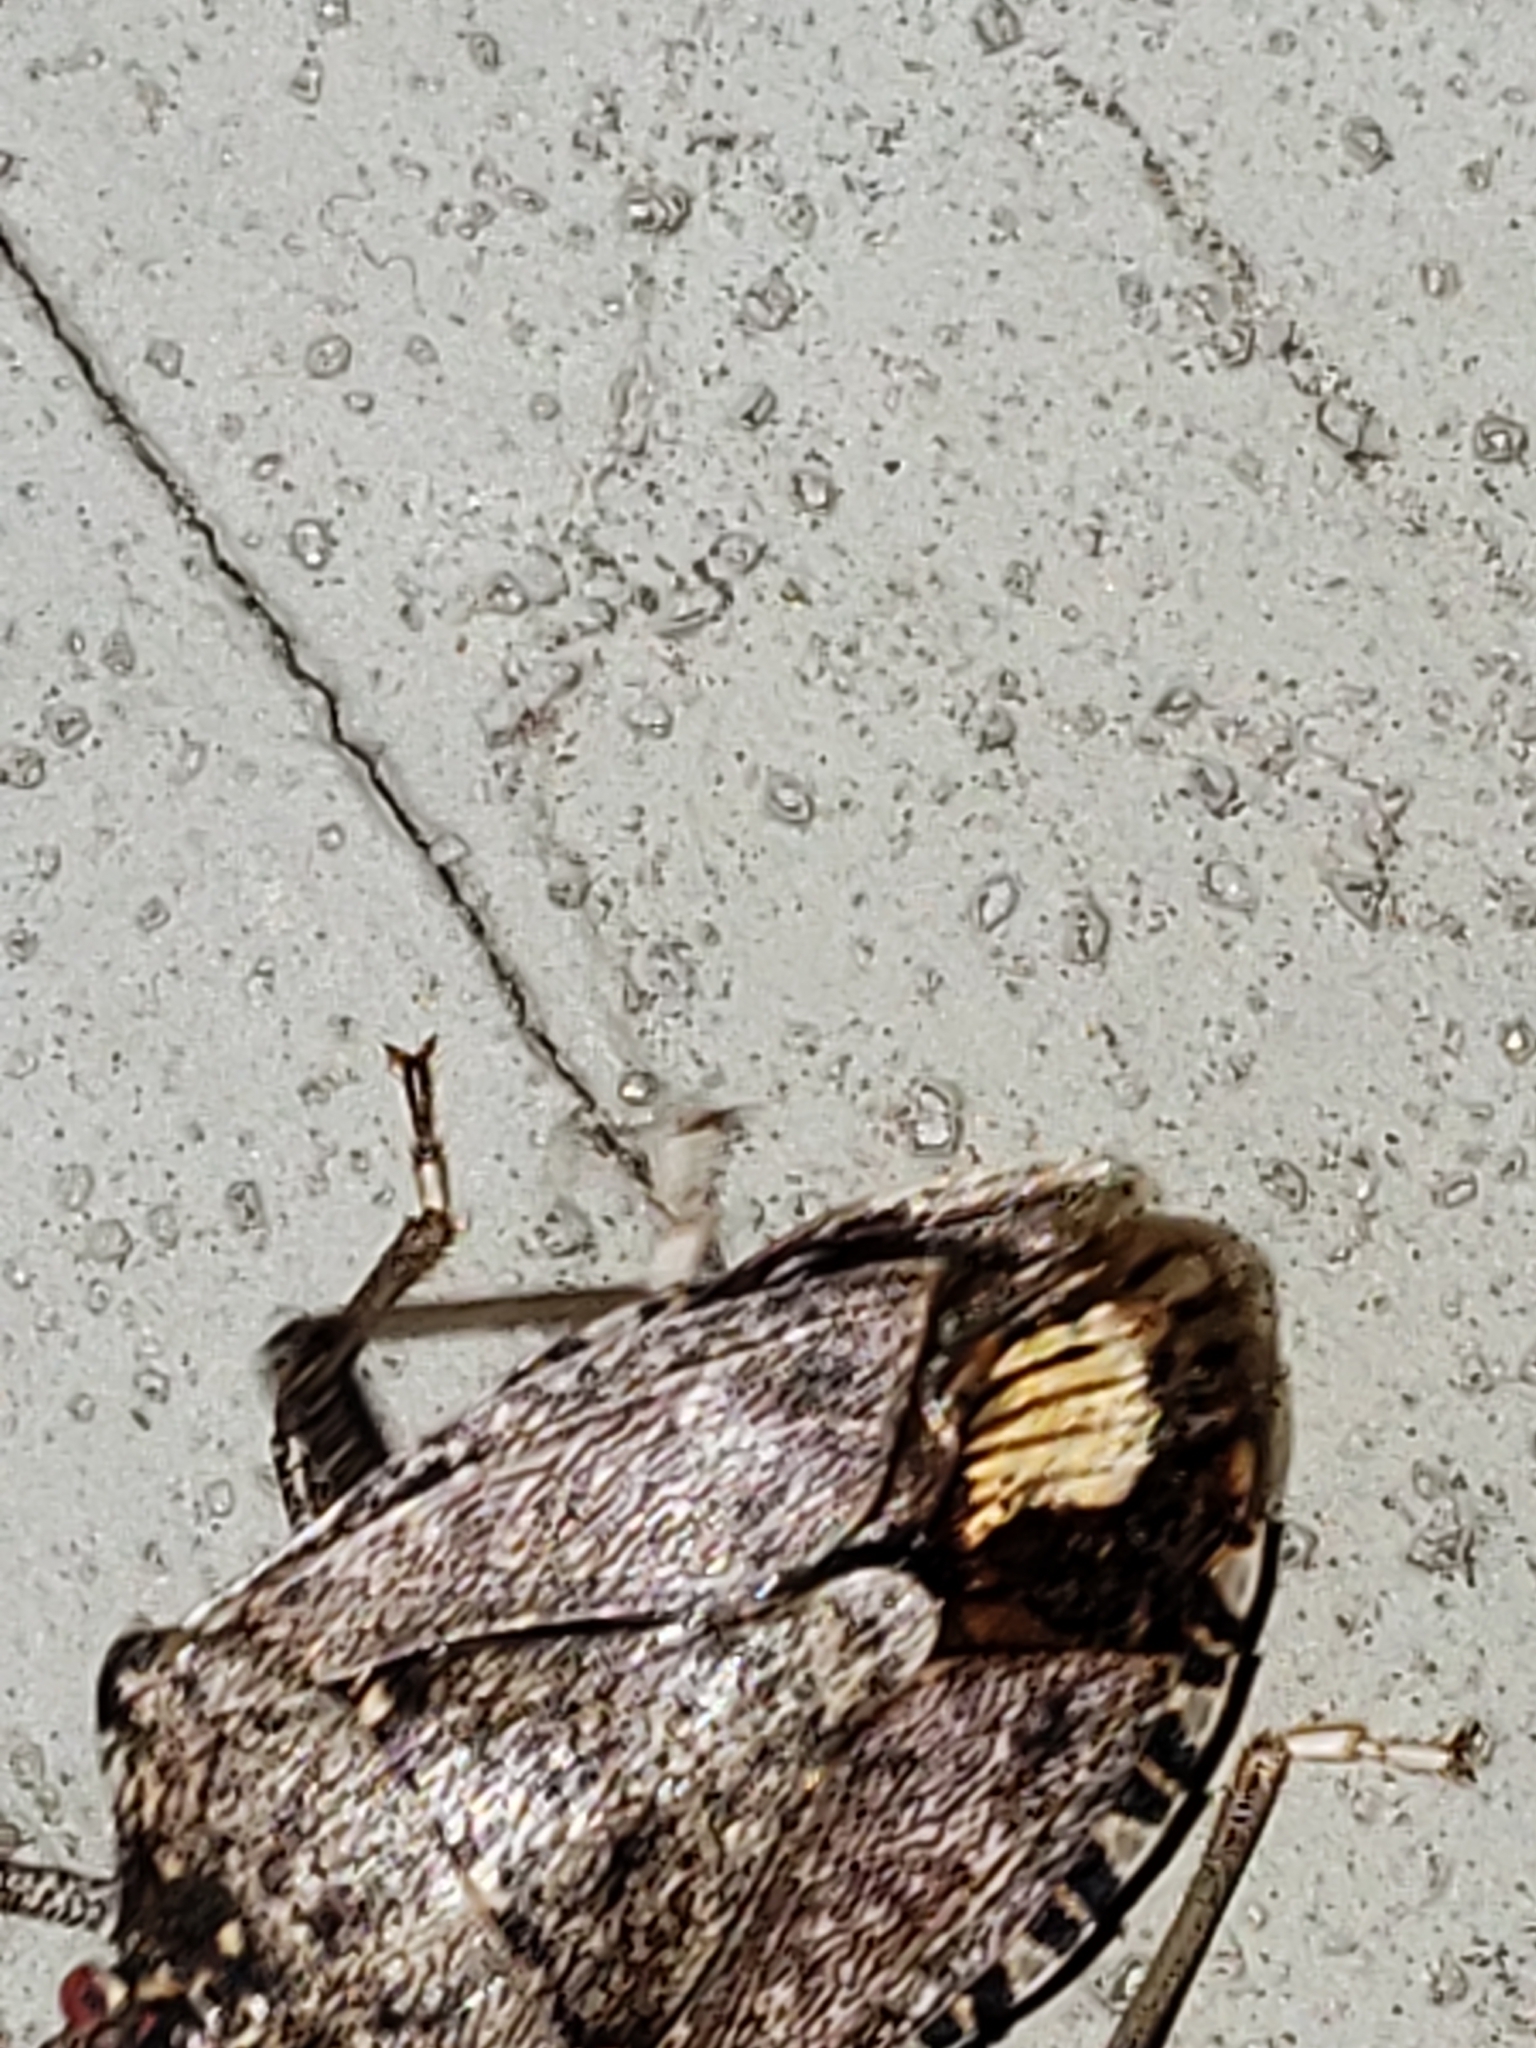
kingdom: Animalia
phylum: Arthropoda
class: Insecta
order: Hemiptera
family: Pentatomidae
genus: Halyomorpha
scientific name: Halyomorpha halys
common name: Brown marmorated stink bug
